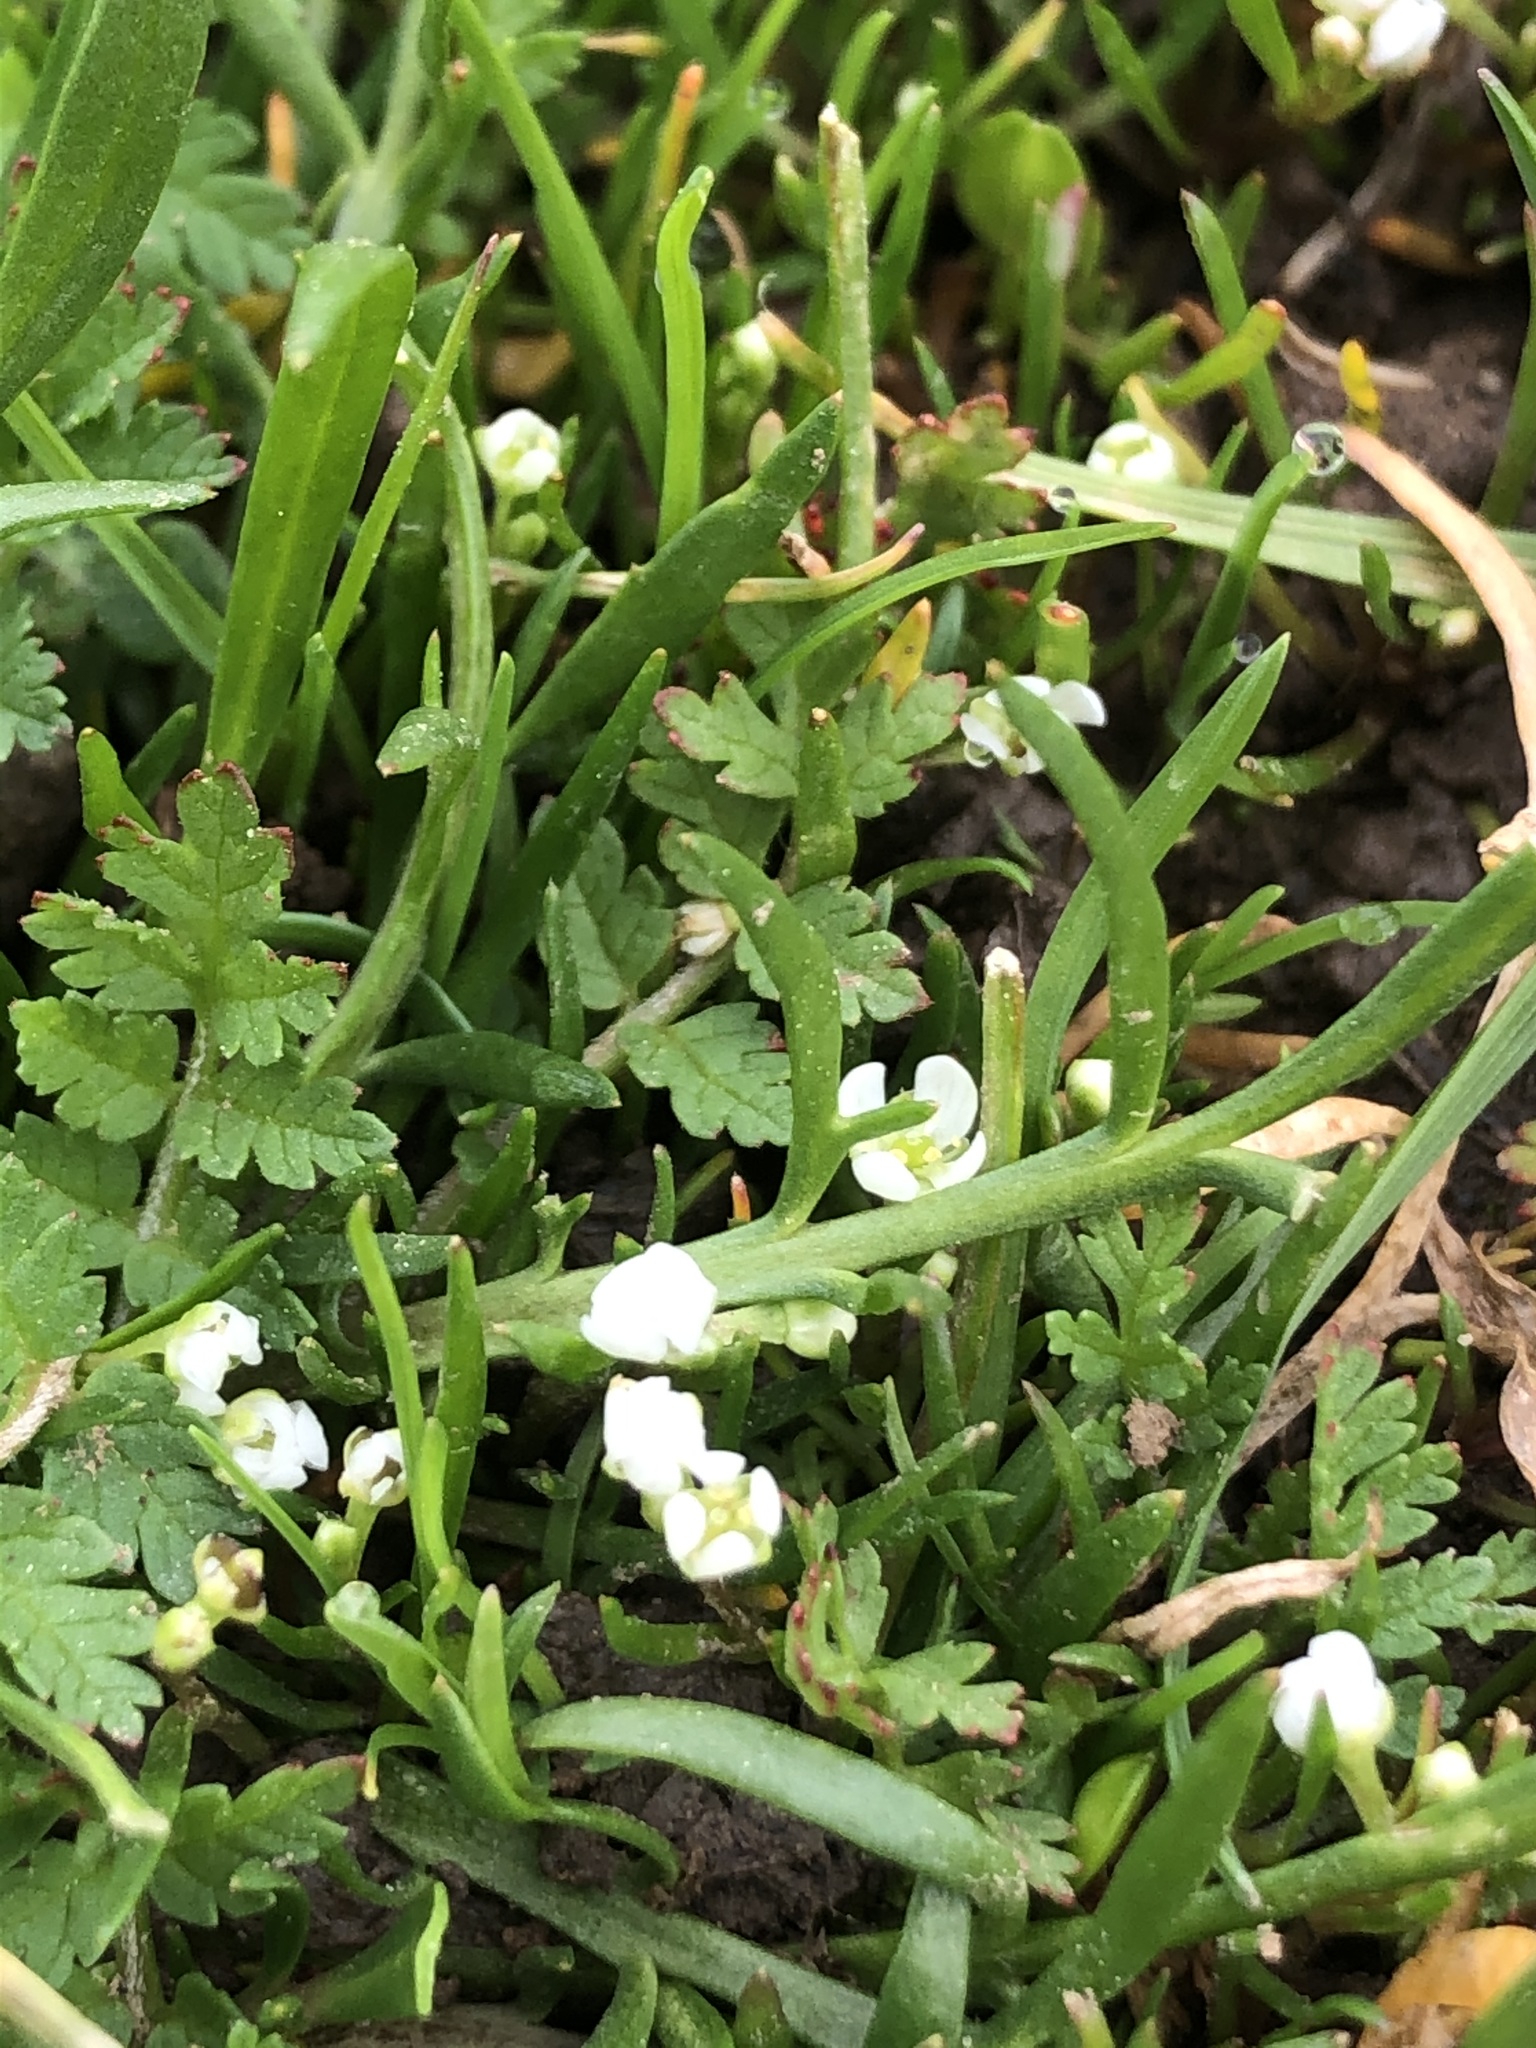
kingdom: Plantae
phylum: Tracheophyta
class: Magnoliopsida
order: Brassicales
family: Brassicaceae
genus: Lepidium
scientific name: Lepidium nitidum
